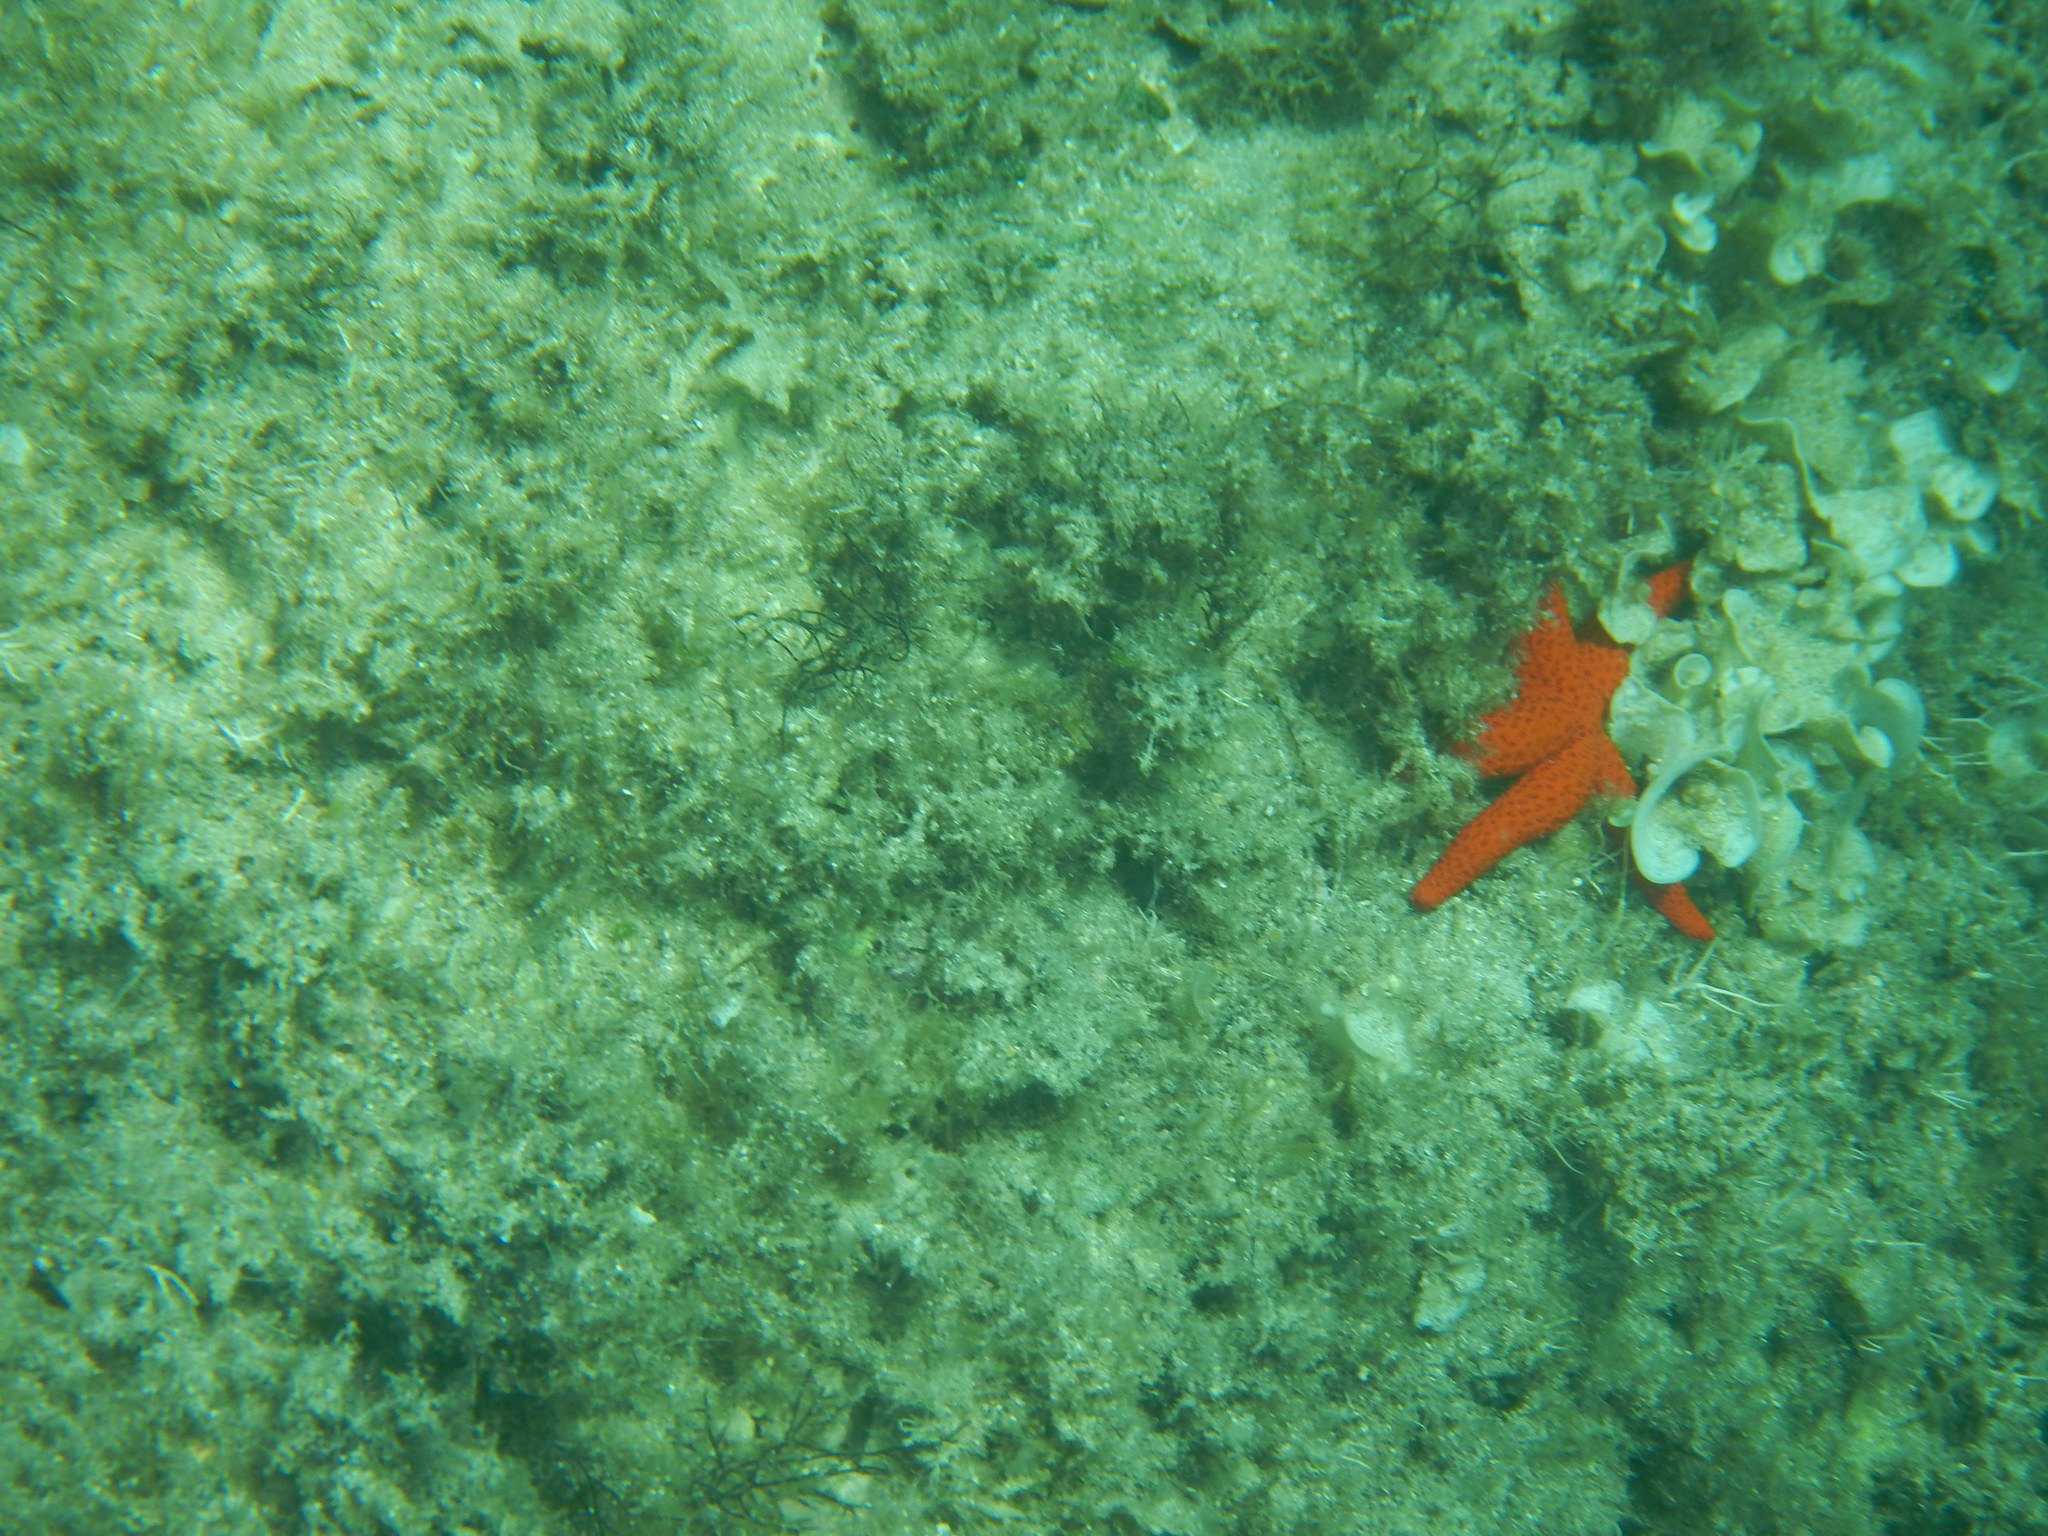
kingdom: Animalia
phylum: Echinodermata
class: Asteroidea
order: Spinulosida
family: Echinasteridae
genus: Echinaster
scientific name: Echinaster sepositus
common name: Red starfish
